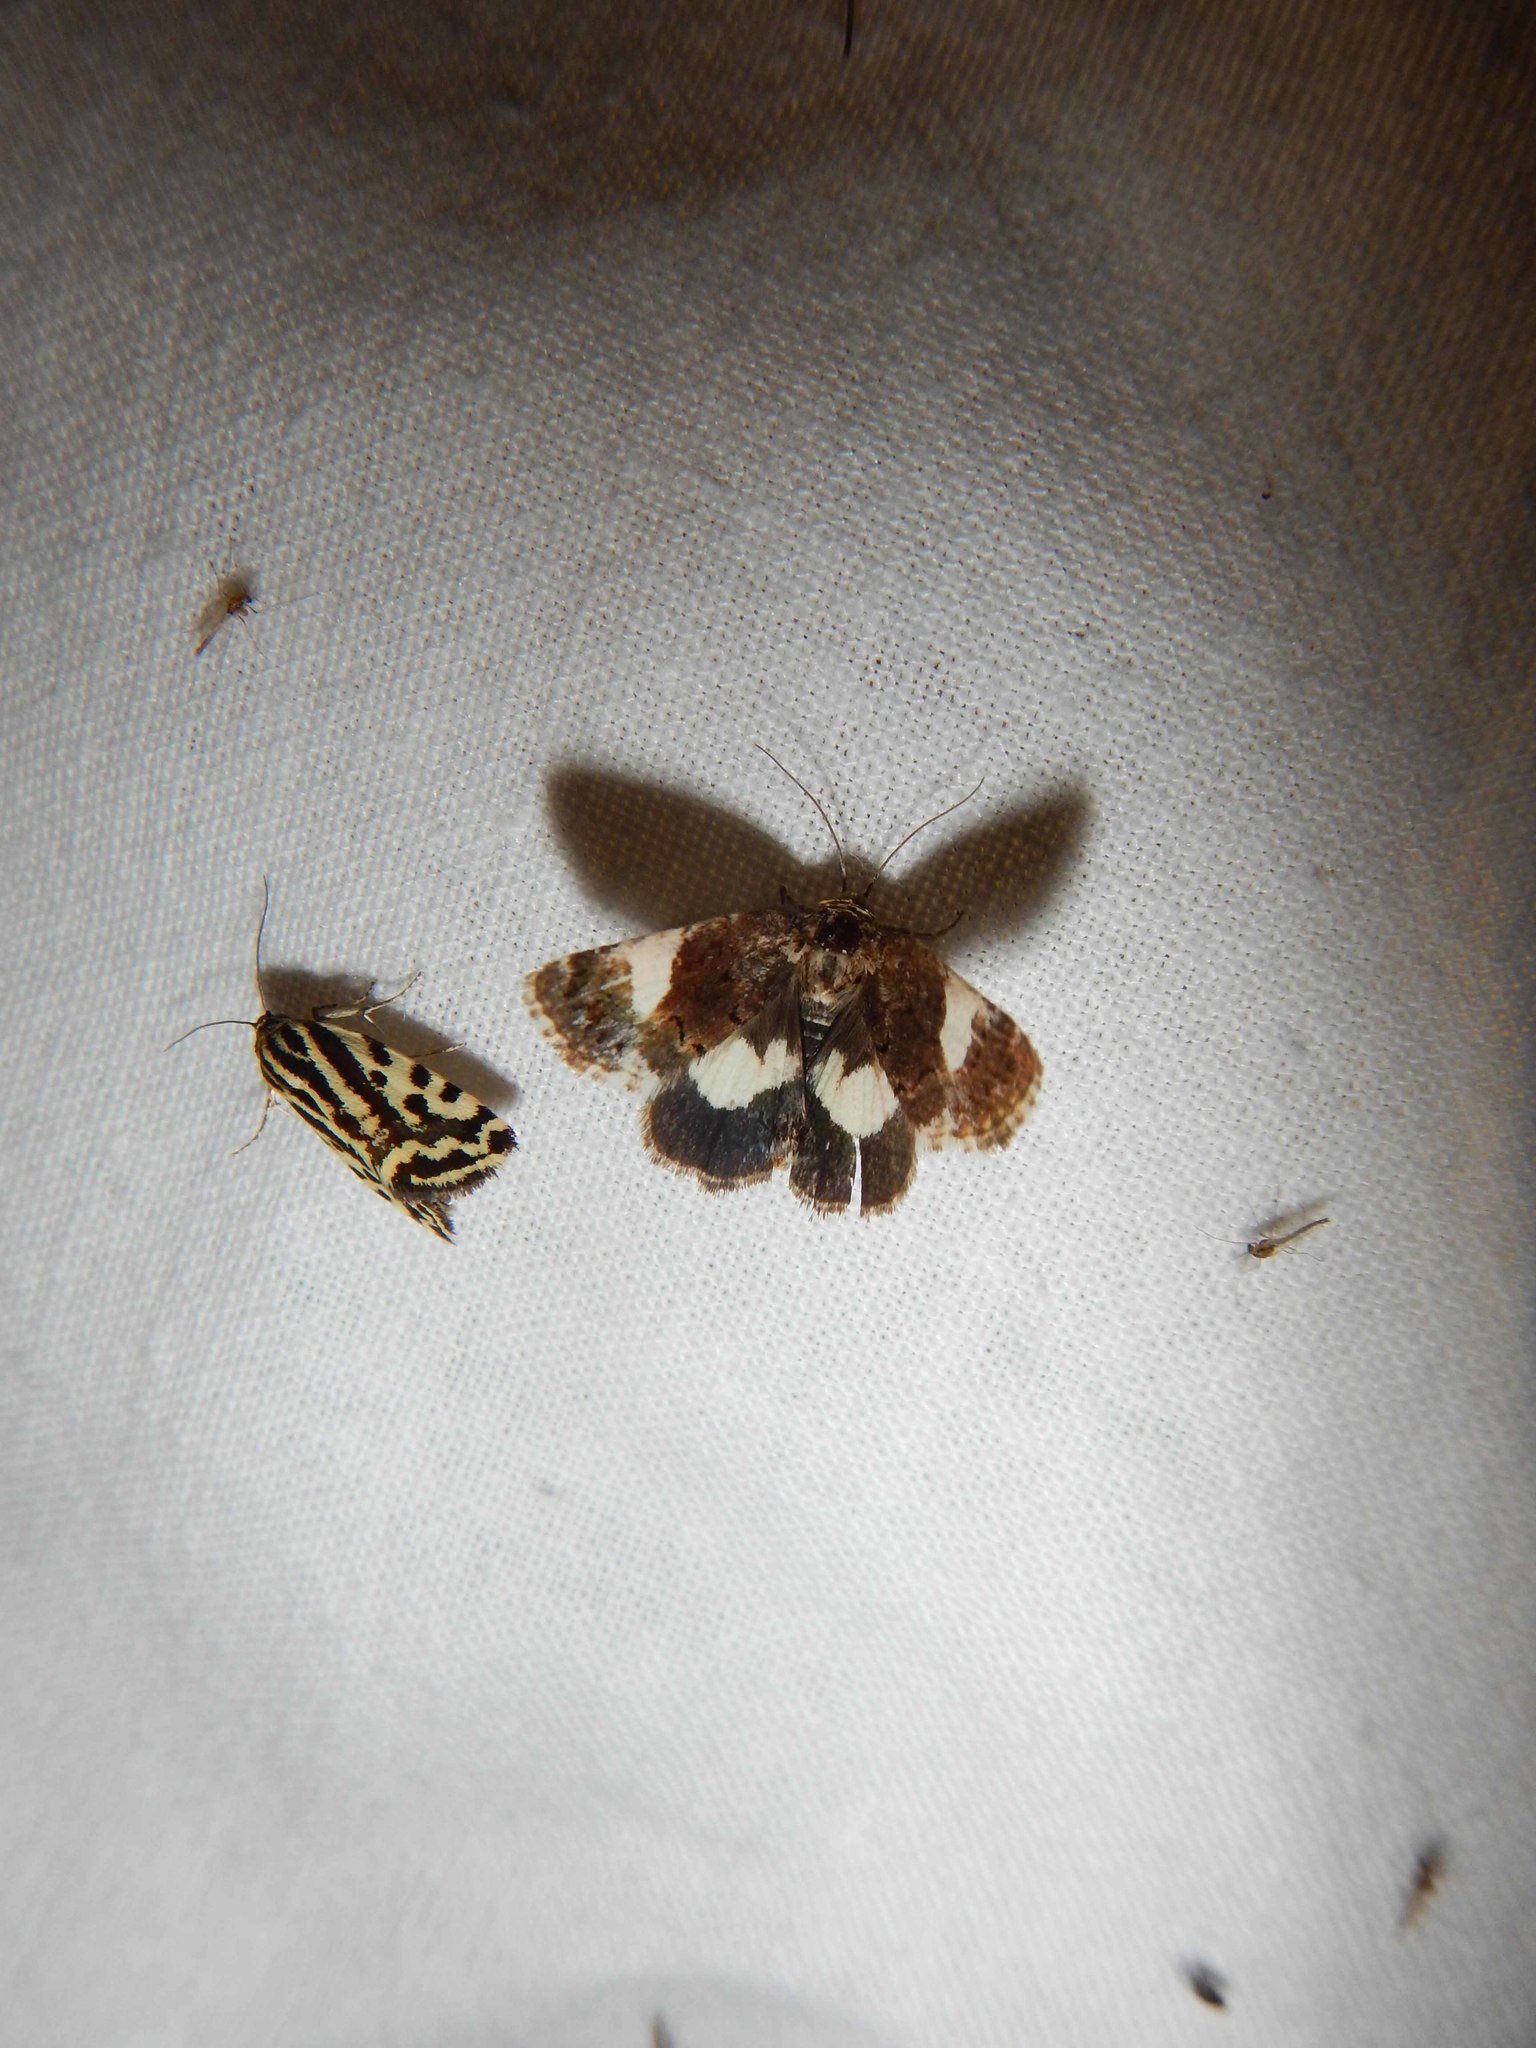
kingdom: Animalia
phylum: Arthropoda
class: Insecta
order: Lepidoptera
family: Erebidae
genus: Tyta
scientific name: Tyta luctuosa
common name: Four-spotted
